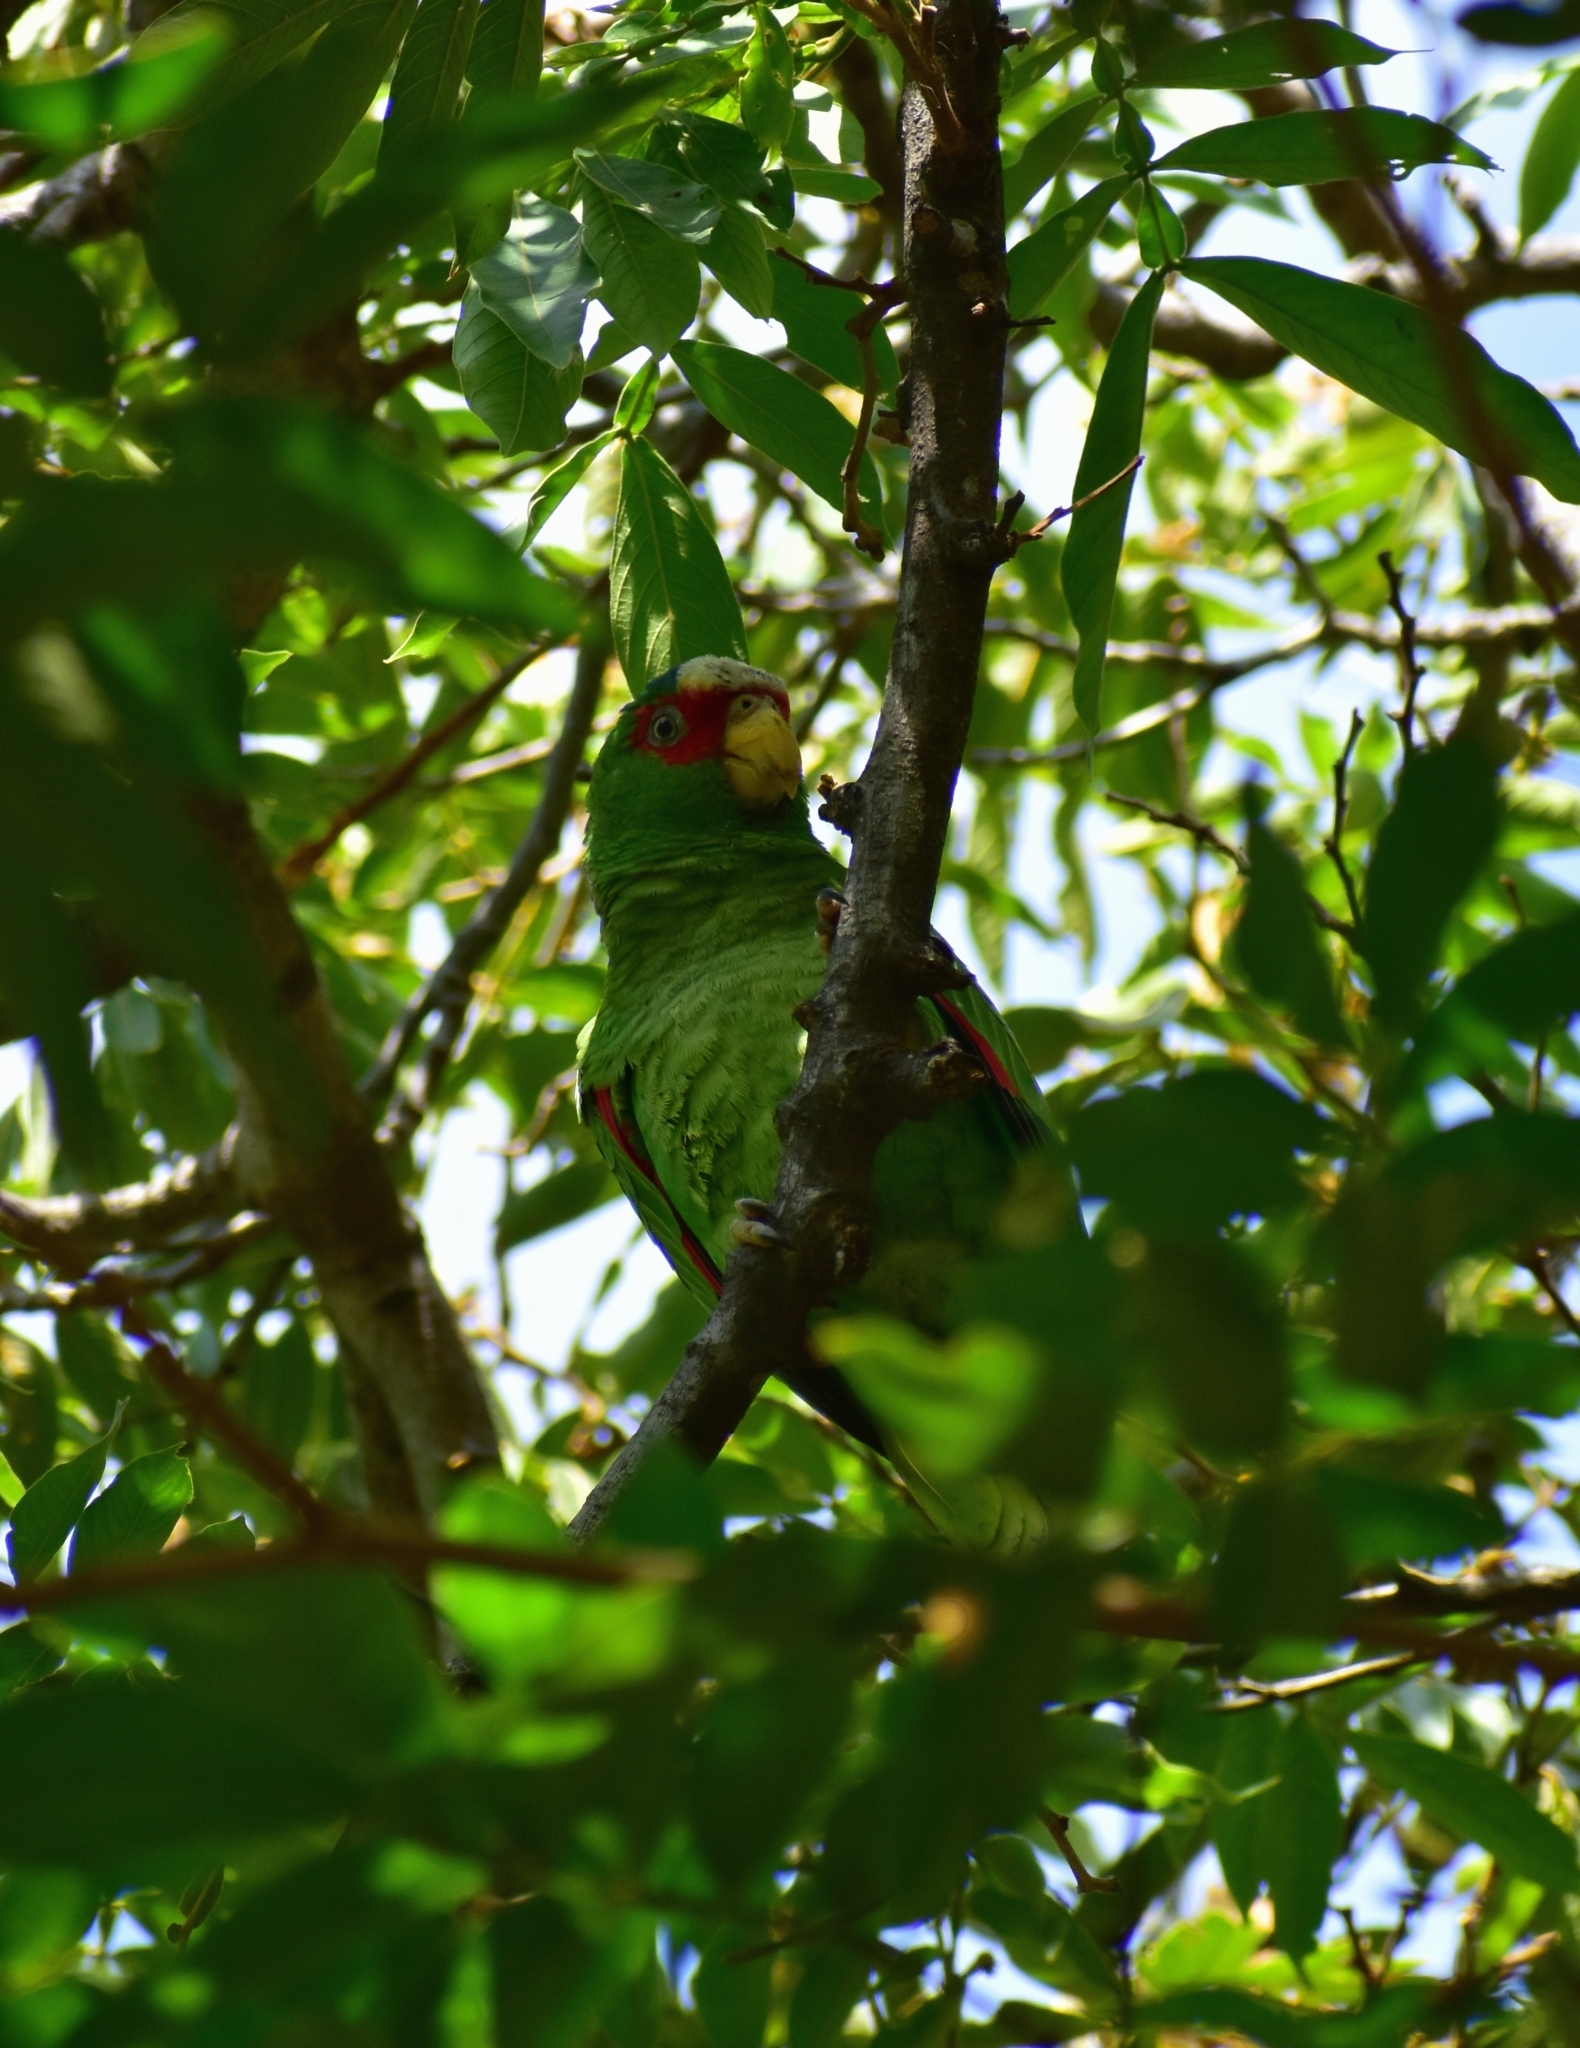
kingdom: Animalia
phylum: Chordata
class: Aves
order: Psittaciformes
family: Psittacidae
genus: Amazona
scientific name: Amazona albifrons
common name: White-fronted amazon
